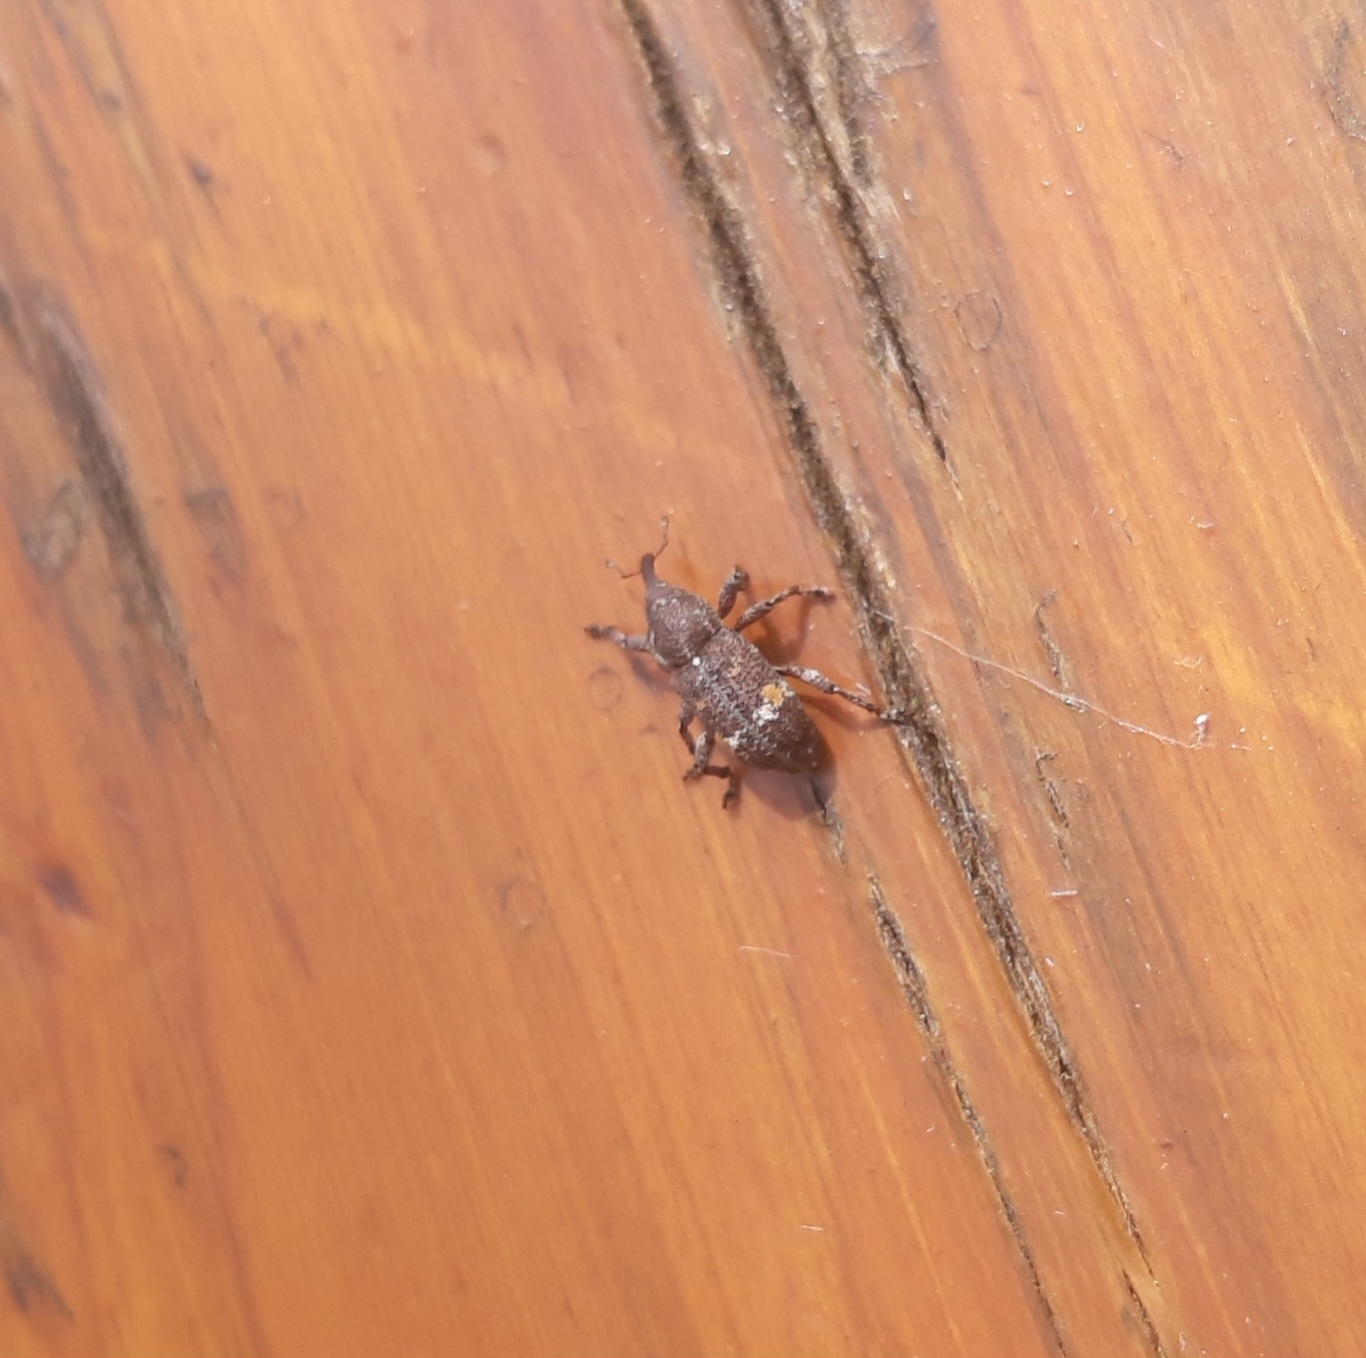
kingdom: Animalia
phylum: Arthropoda
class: Insecta
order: Coleoptera
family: Curculionidae
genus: Pissodes
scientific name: Pissodes
